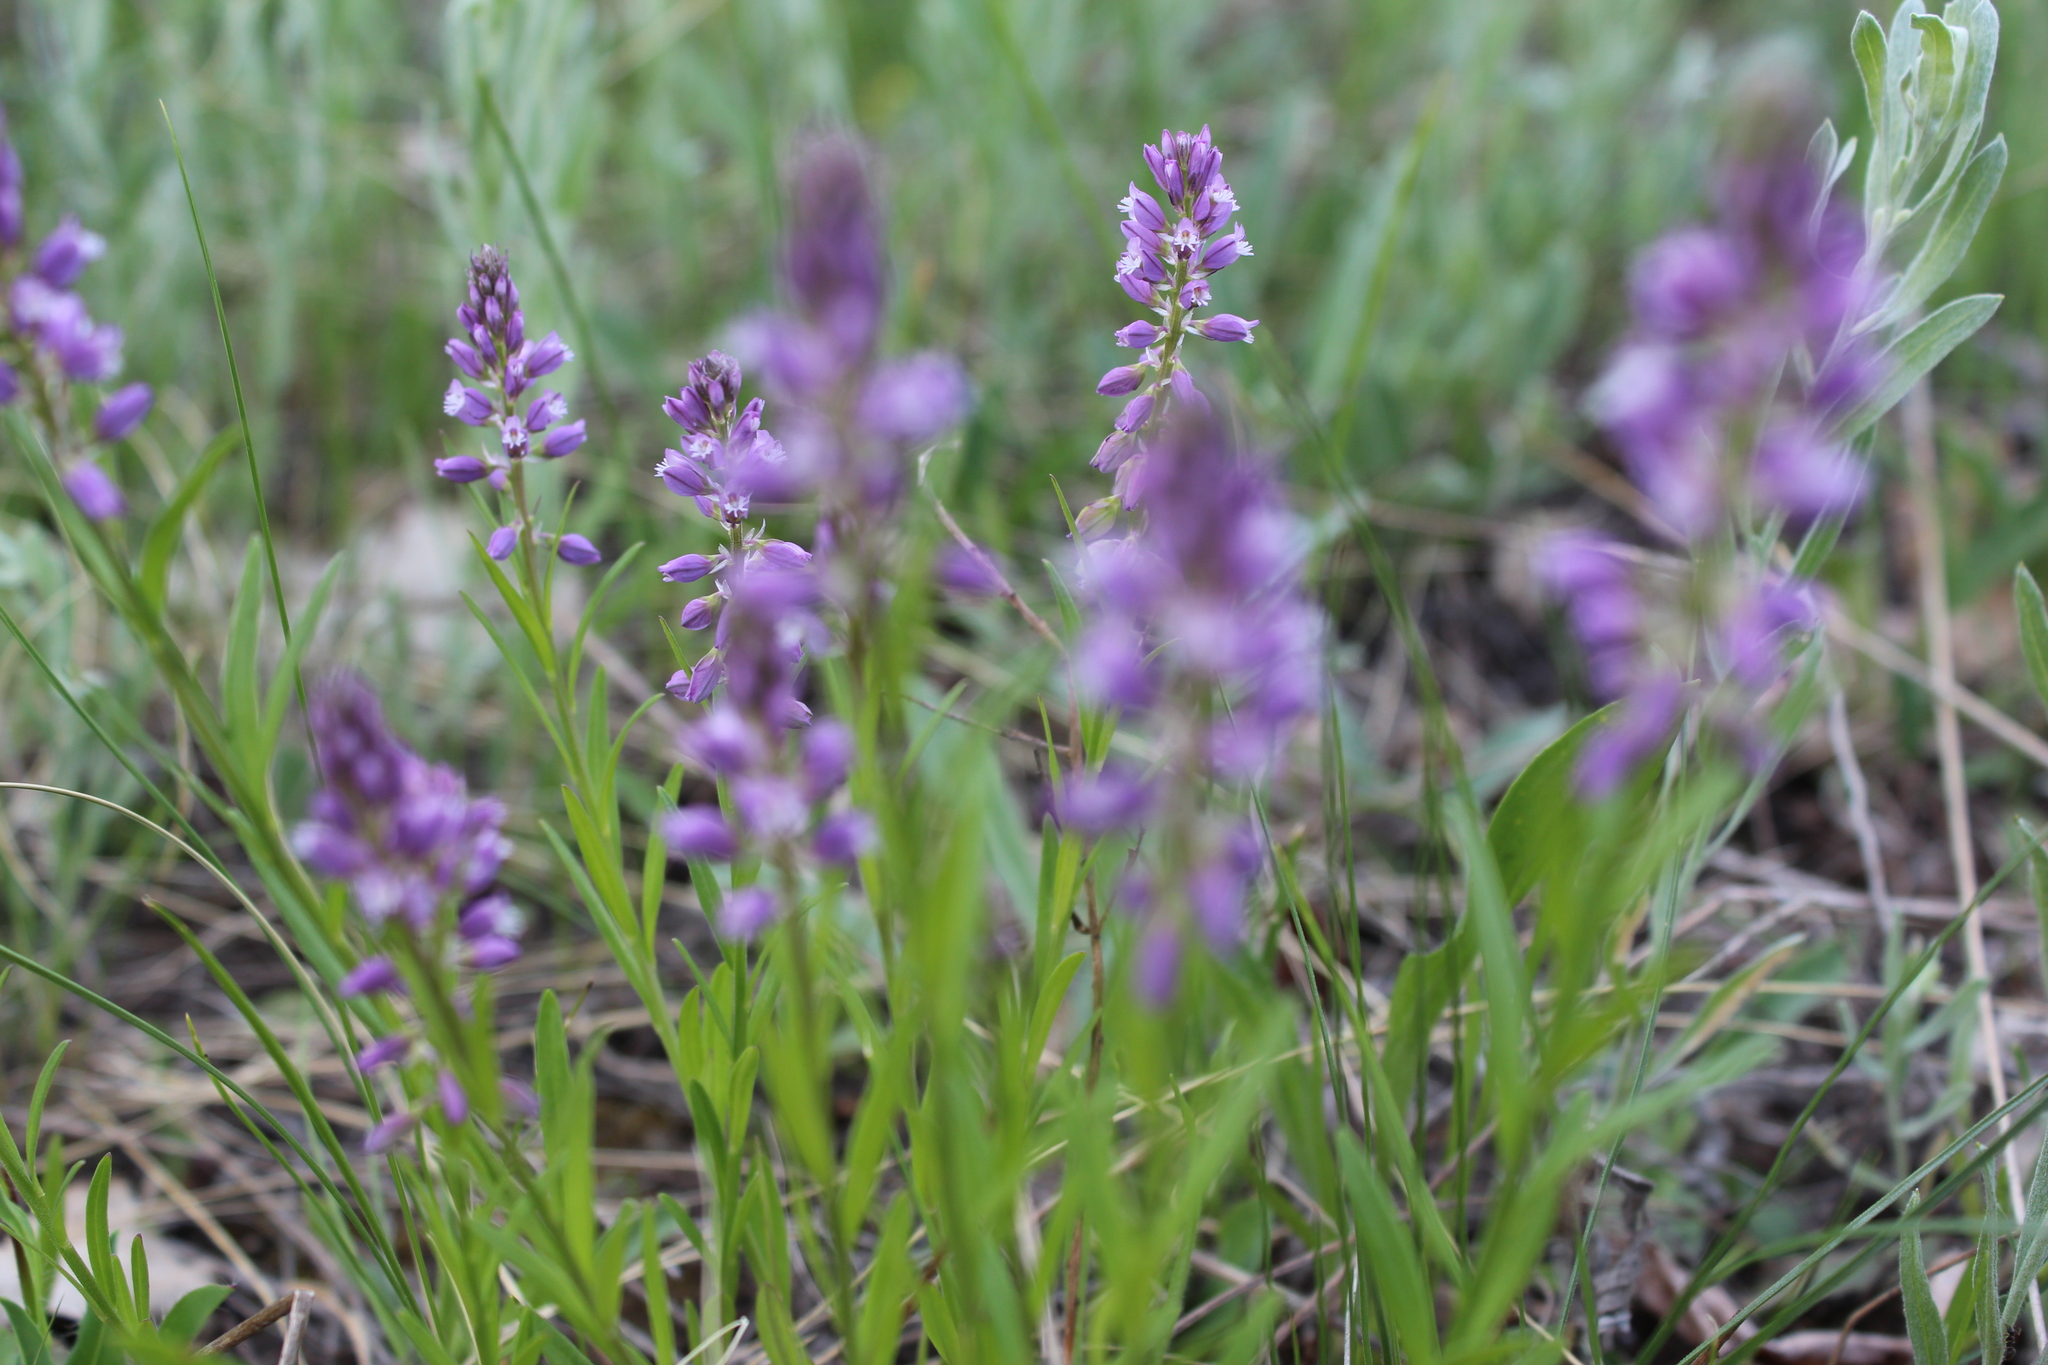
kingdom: Plantae
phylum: Tracheophyta
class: Magnoliopsida
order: Fabales
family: Polygalaceae
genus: Polygala
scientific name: Polygala comosa
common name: Tufted milkwort
